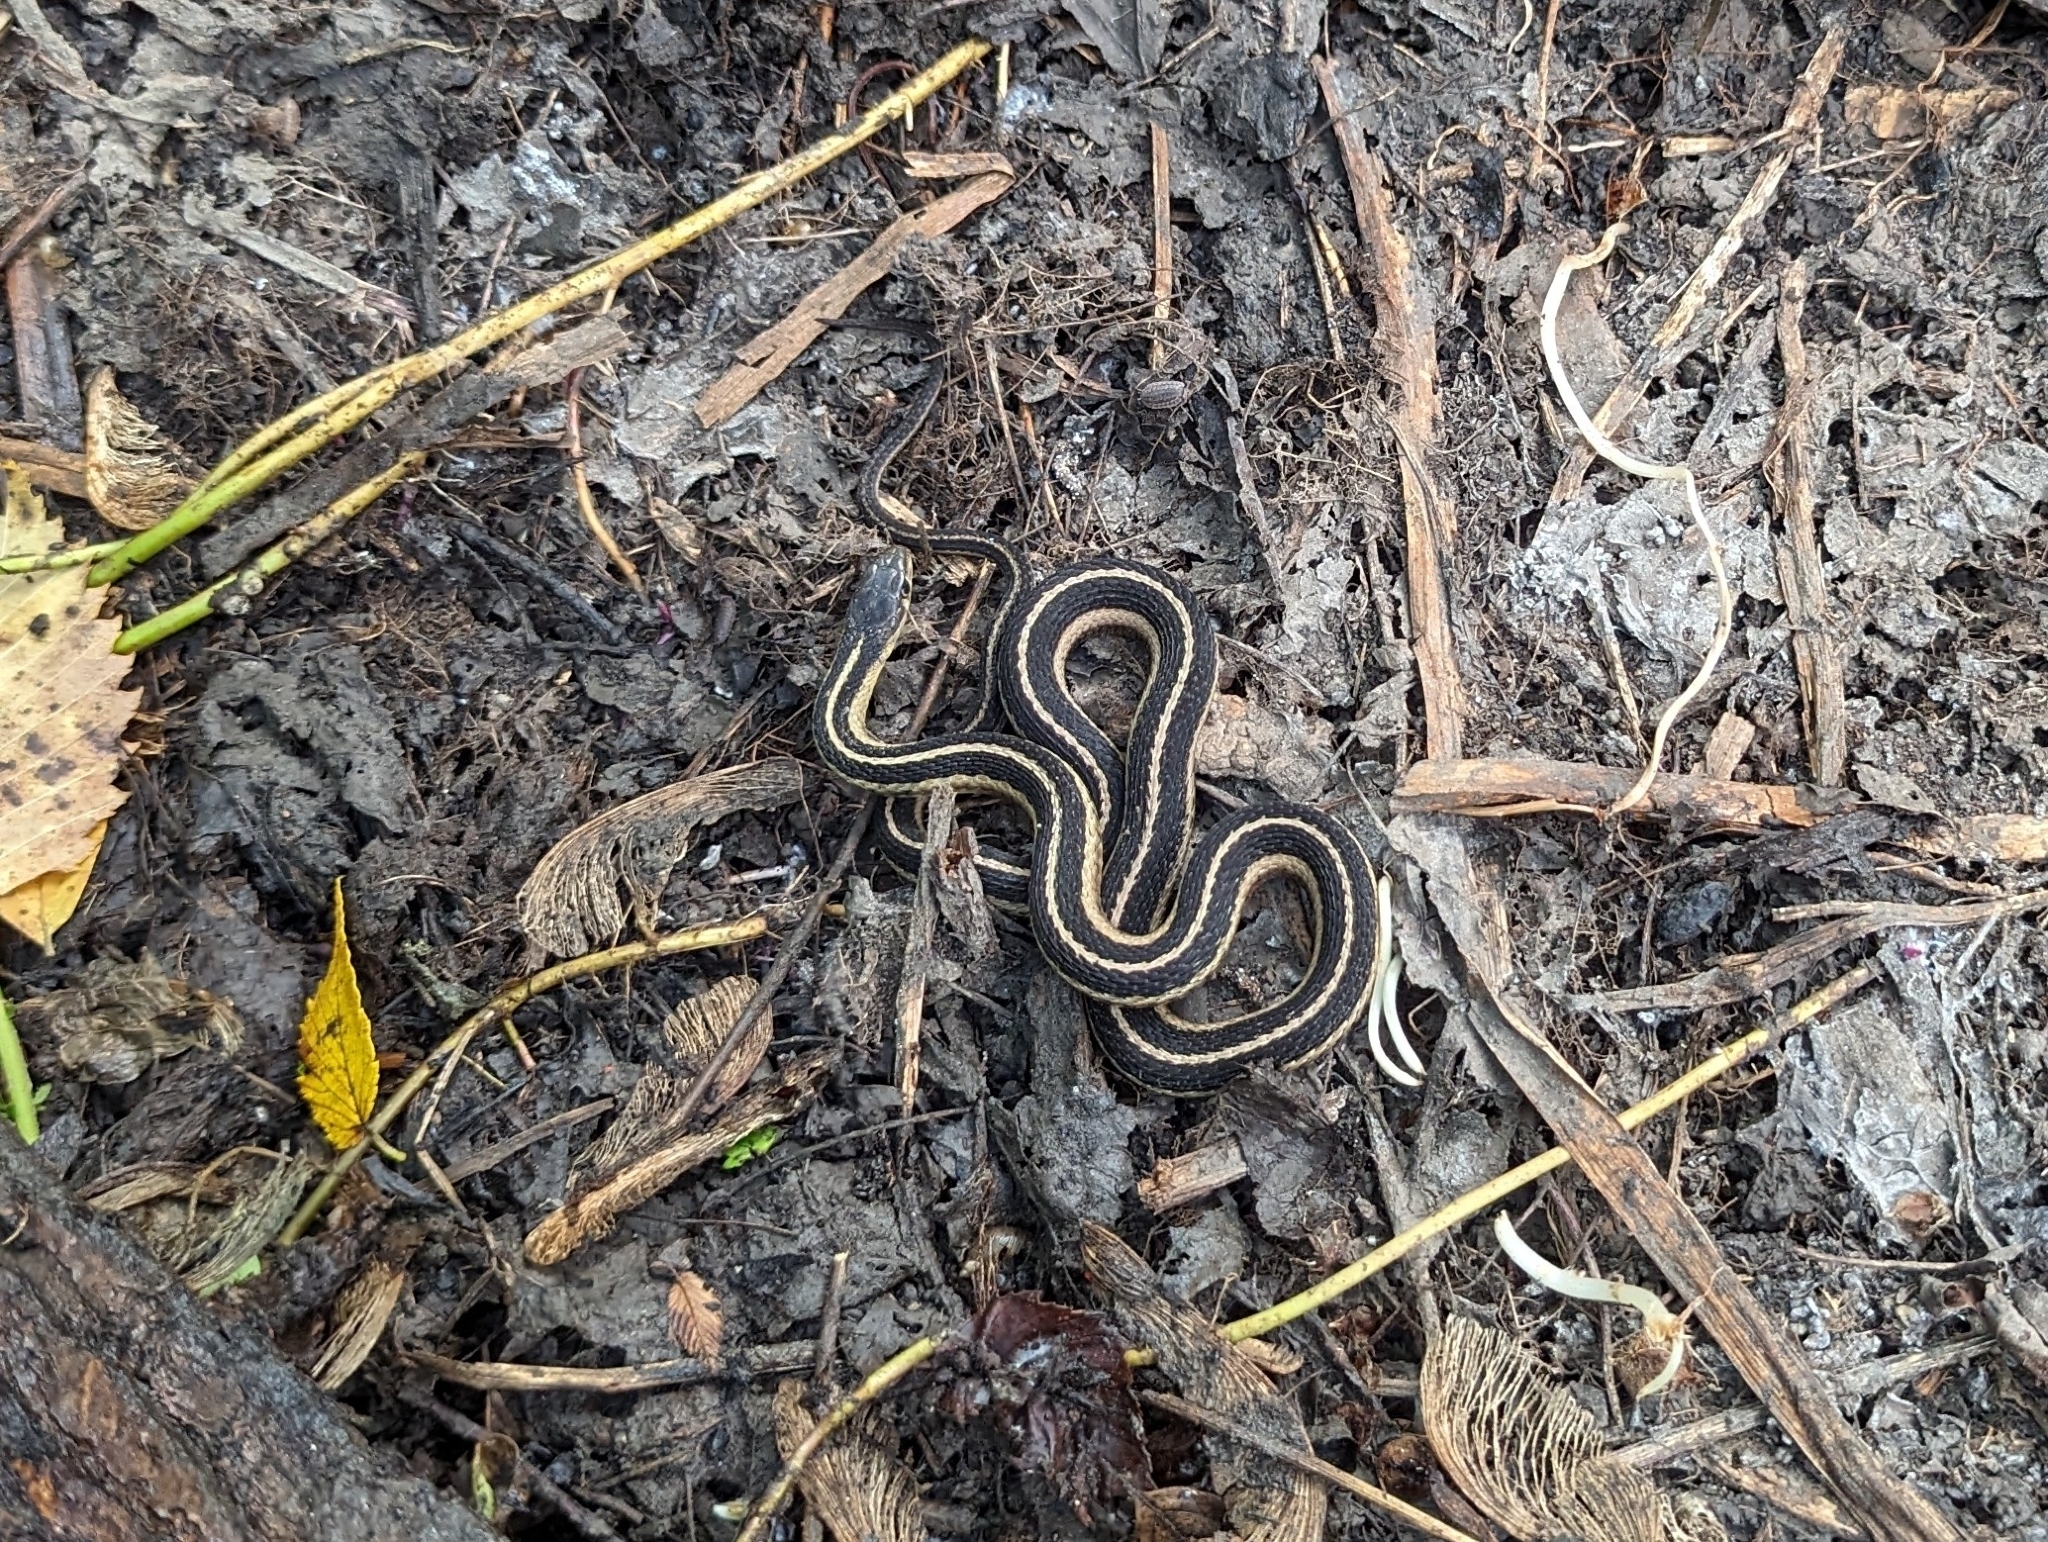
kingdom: Animalia
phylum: Chordata
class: Squamata
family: Colubridae
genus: Thamnophis
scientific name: Thamnophis sirtalis
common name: Common garter snake
